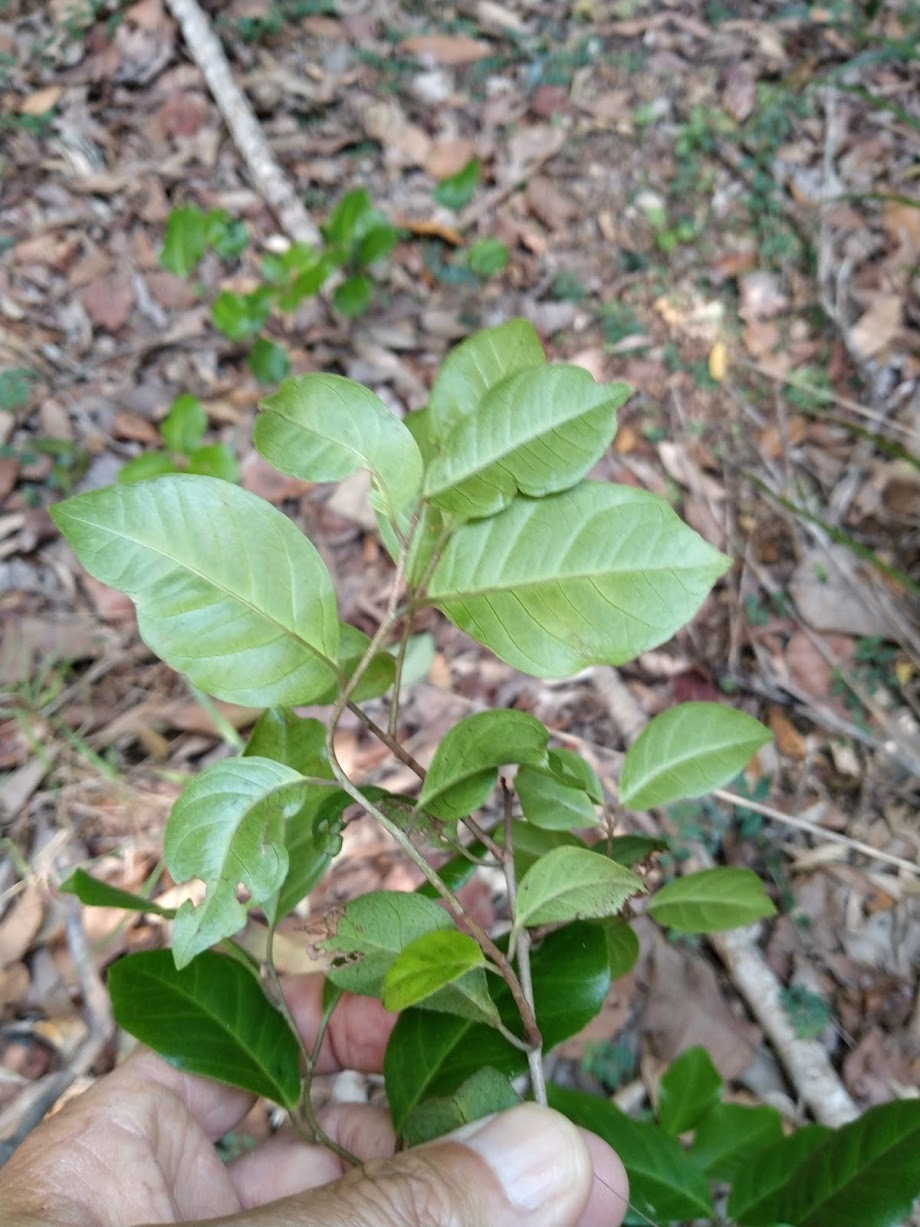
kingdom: Plantae
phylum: Tracheophyta
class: Magnoliopsida
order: Ericales
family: Primulaceae
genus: Embelia
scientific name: Embelia australiana
